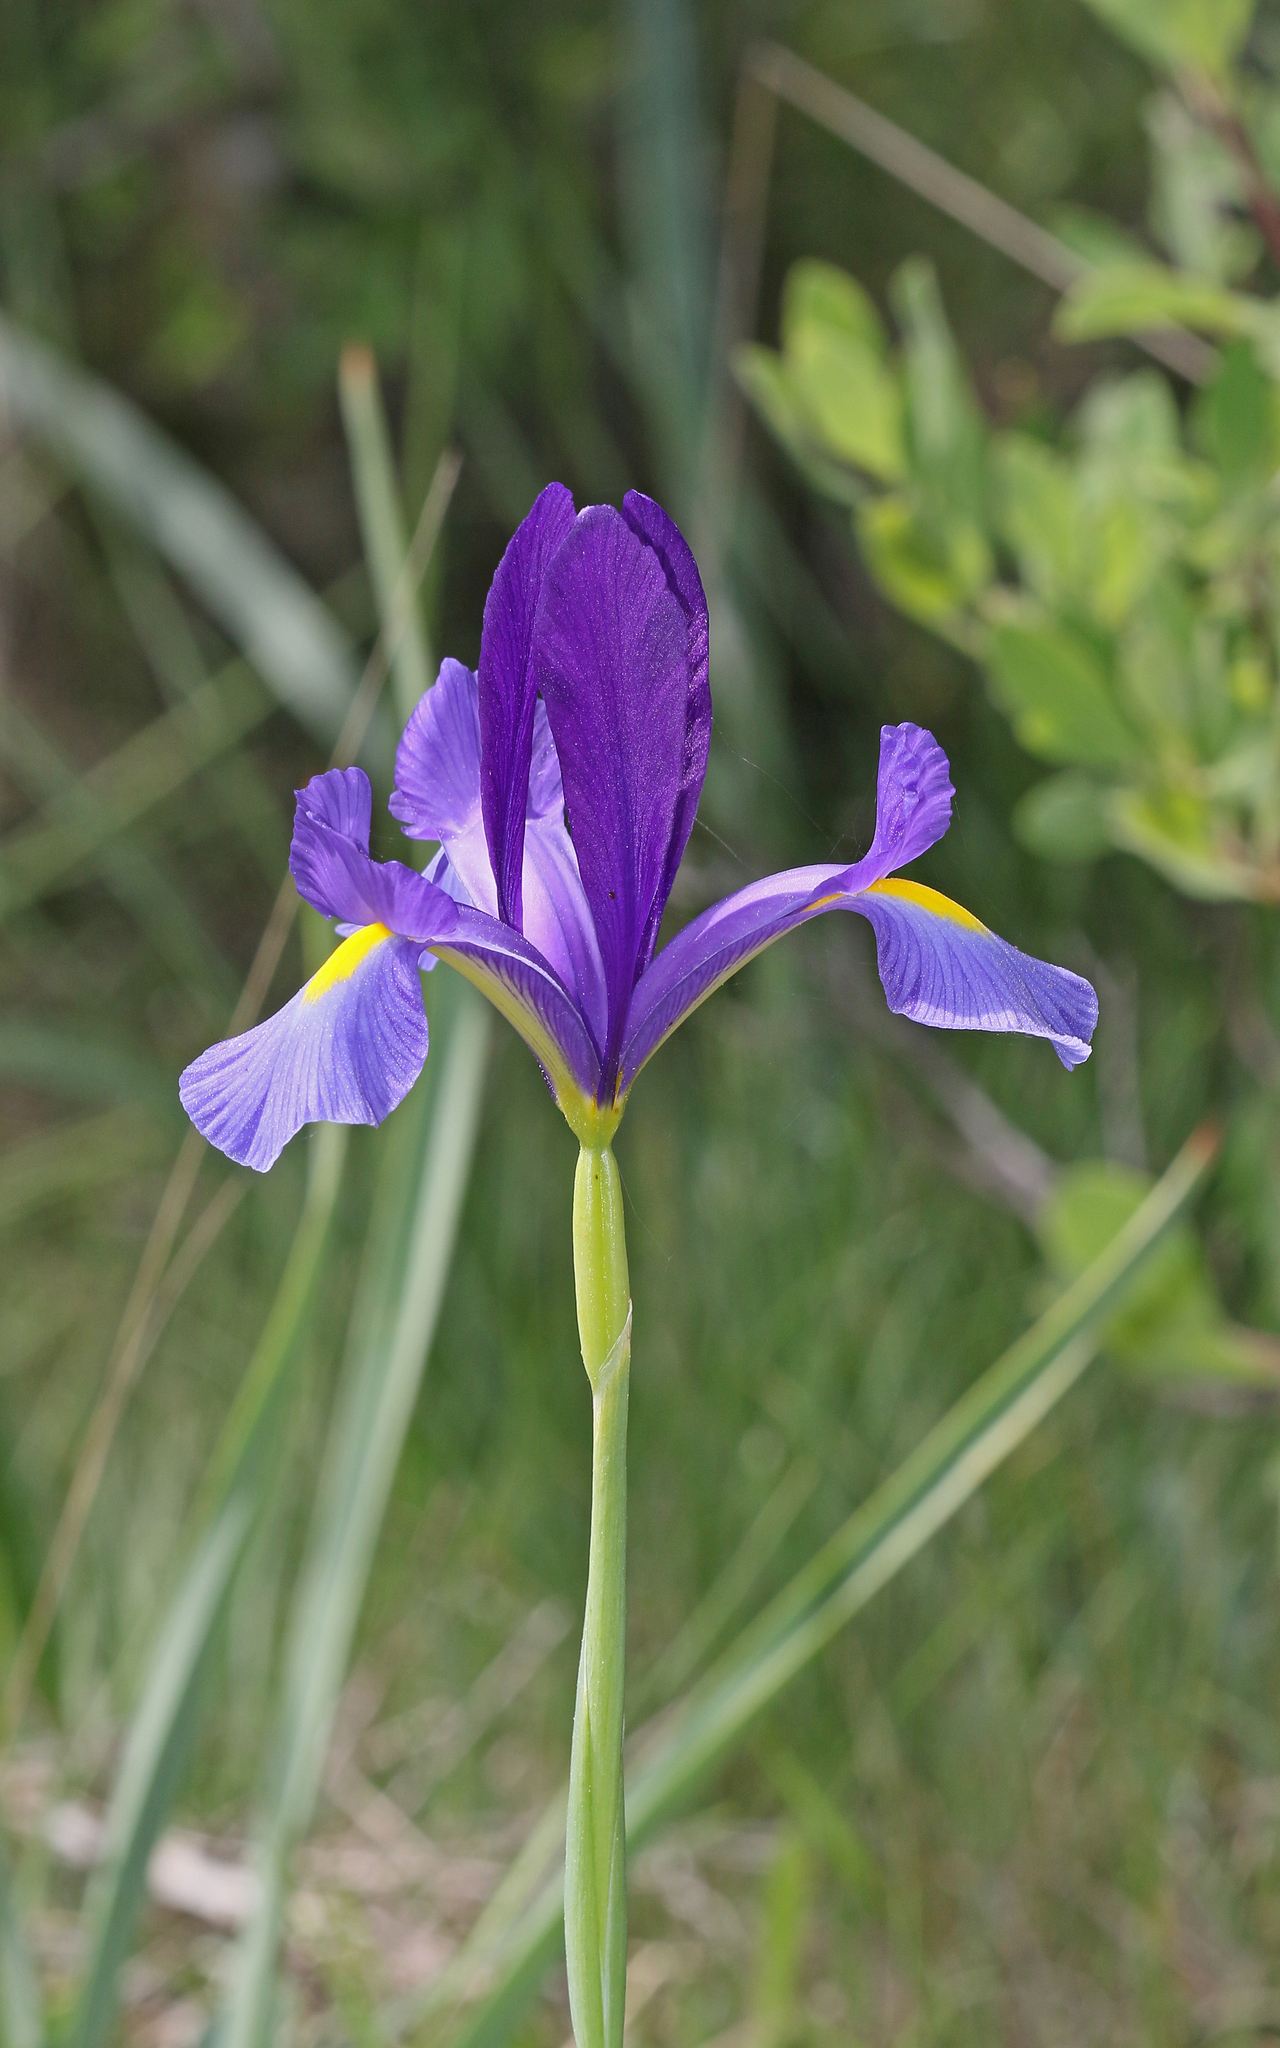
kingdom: Plantae
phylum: Tracheophyta
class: Liliopsida
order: Asparagales
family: Iridaceae
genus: Iris
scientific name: Iris xiphium
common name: Spanish iris
